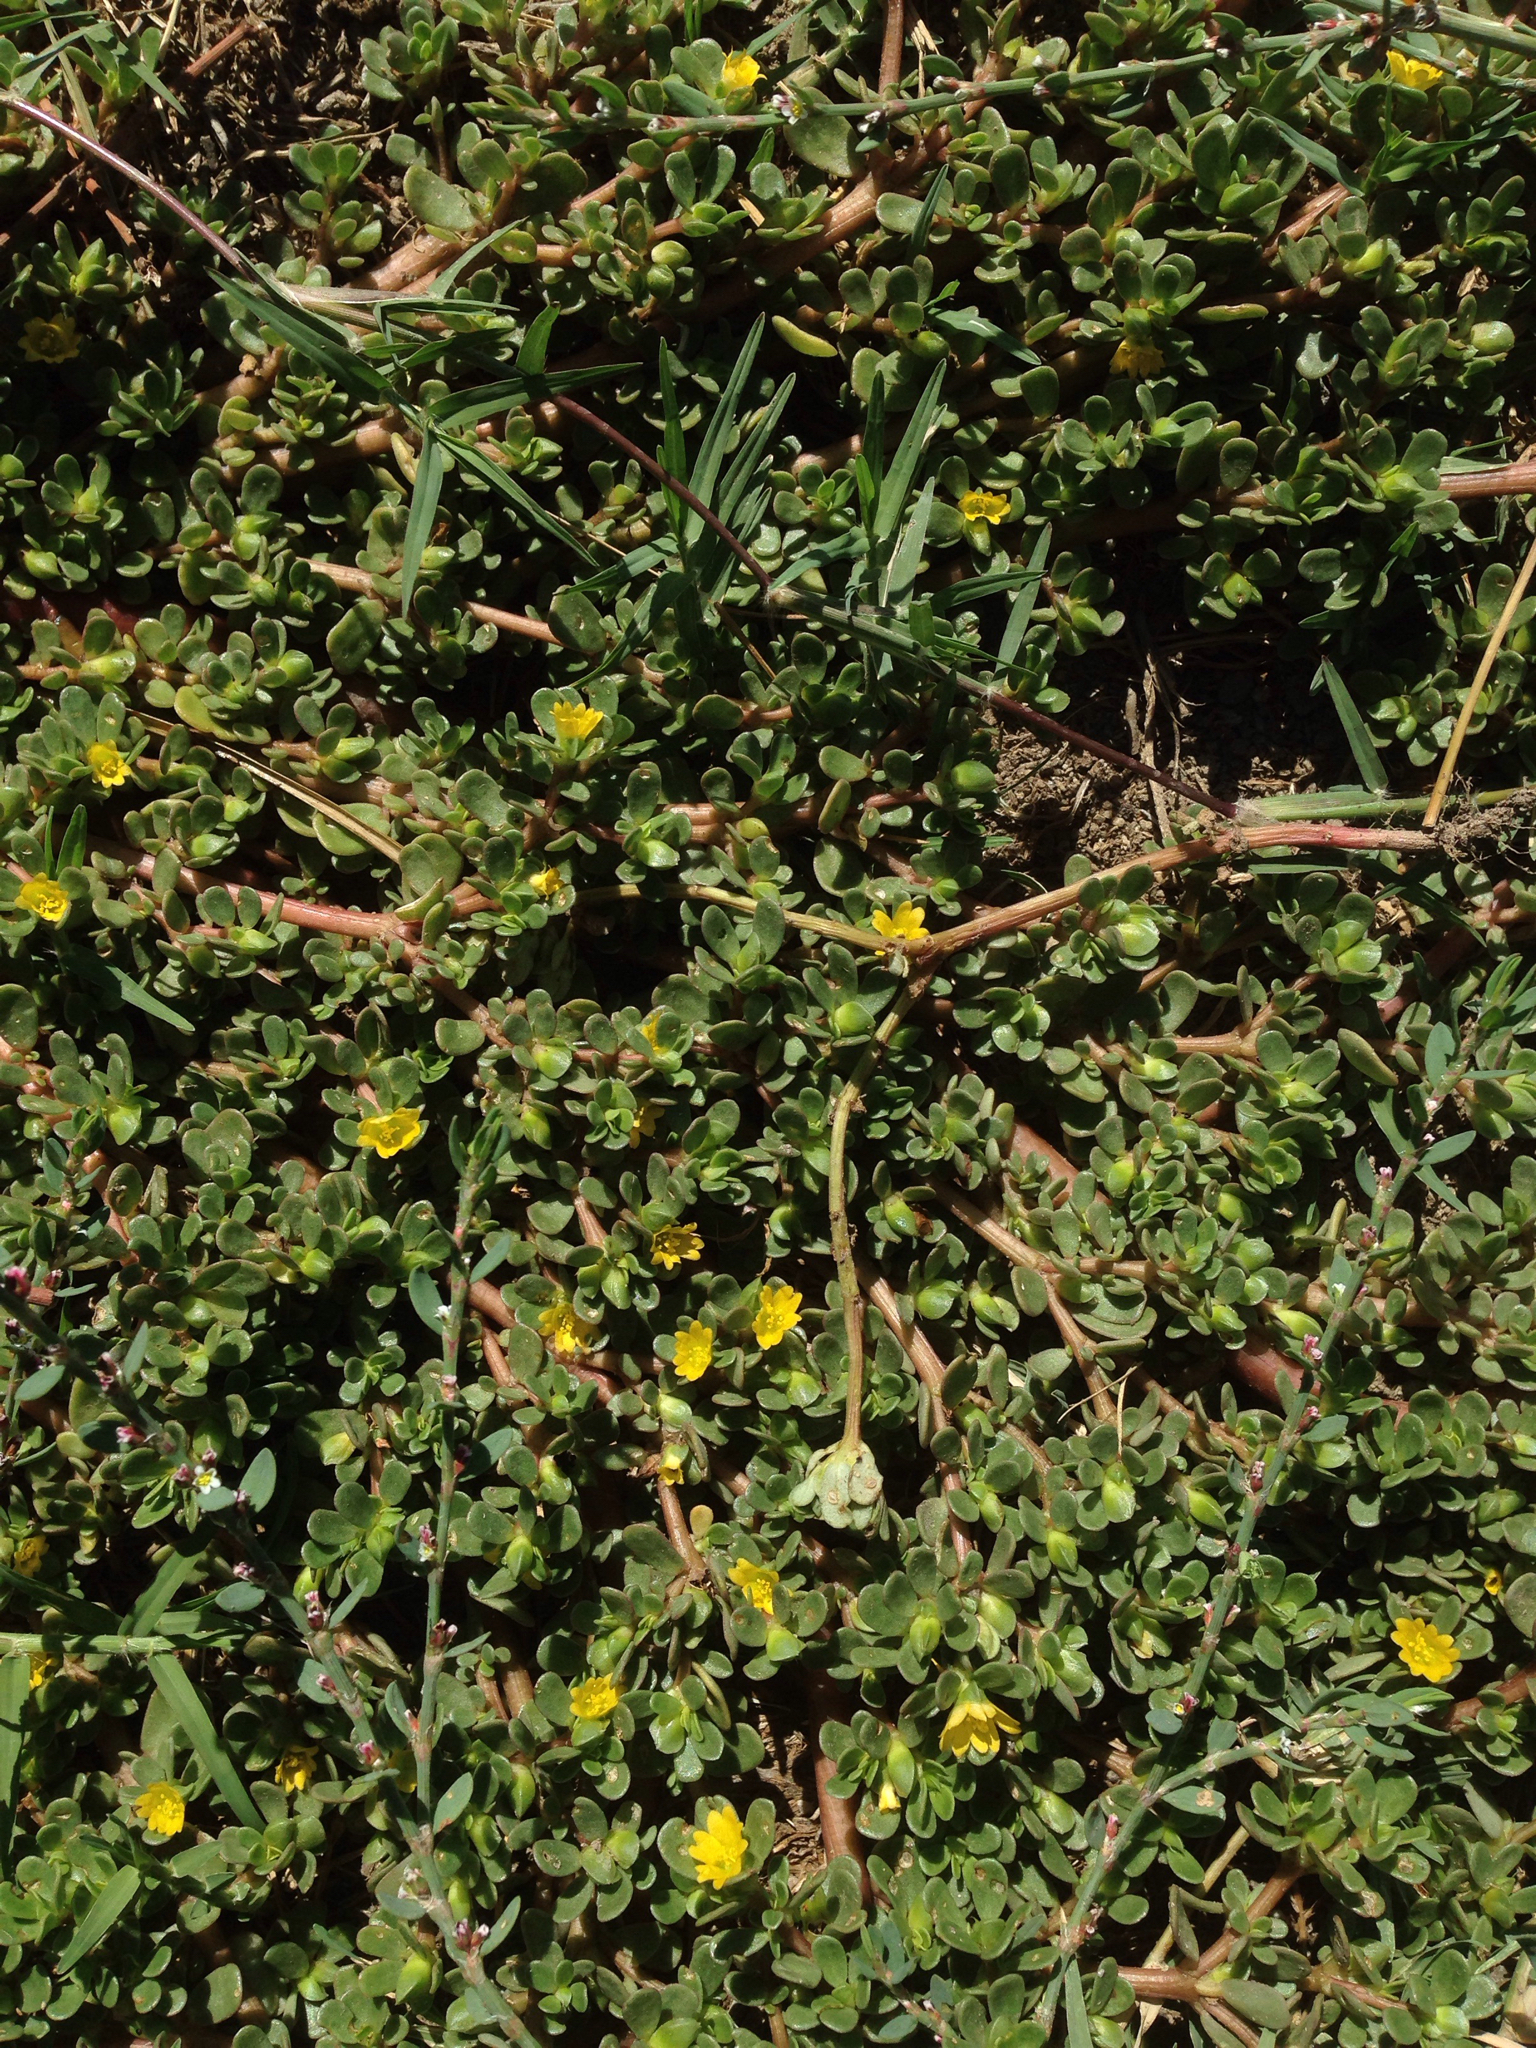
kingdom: Plantae
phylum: Tracheophyta
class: Magnoliopsida
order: Caryophyllales
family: Portulacaceae
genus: Portulaca
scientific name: Portulaca oleracea
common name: Common purslane
